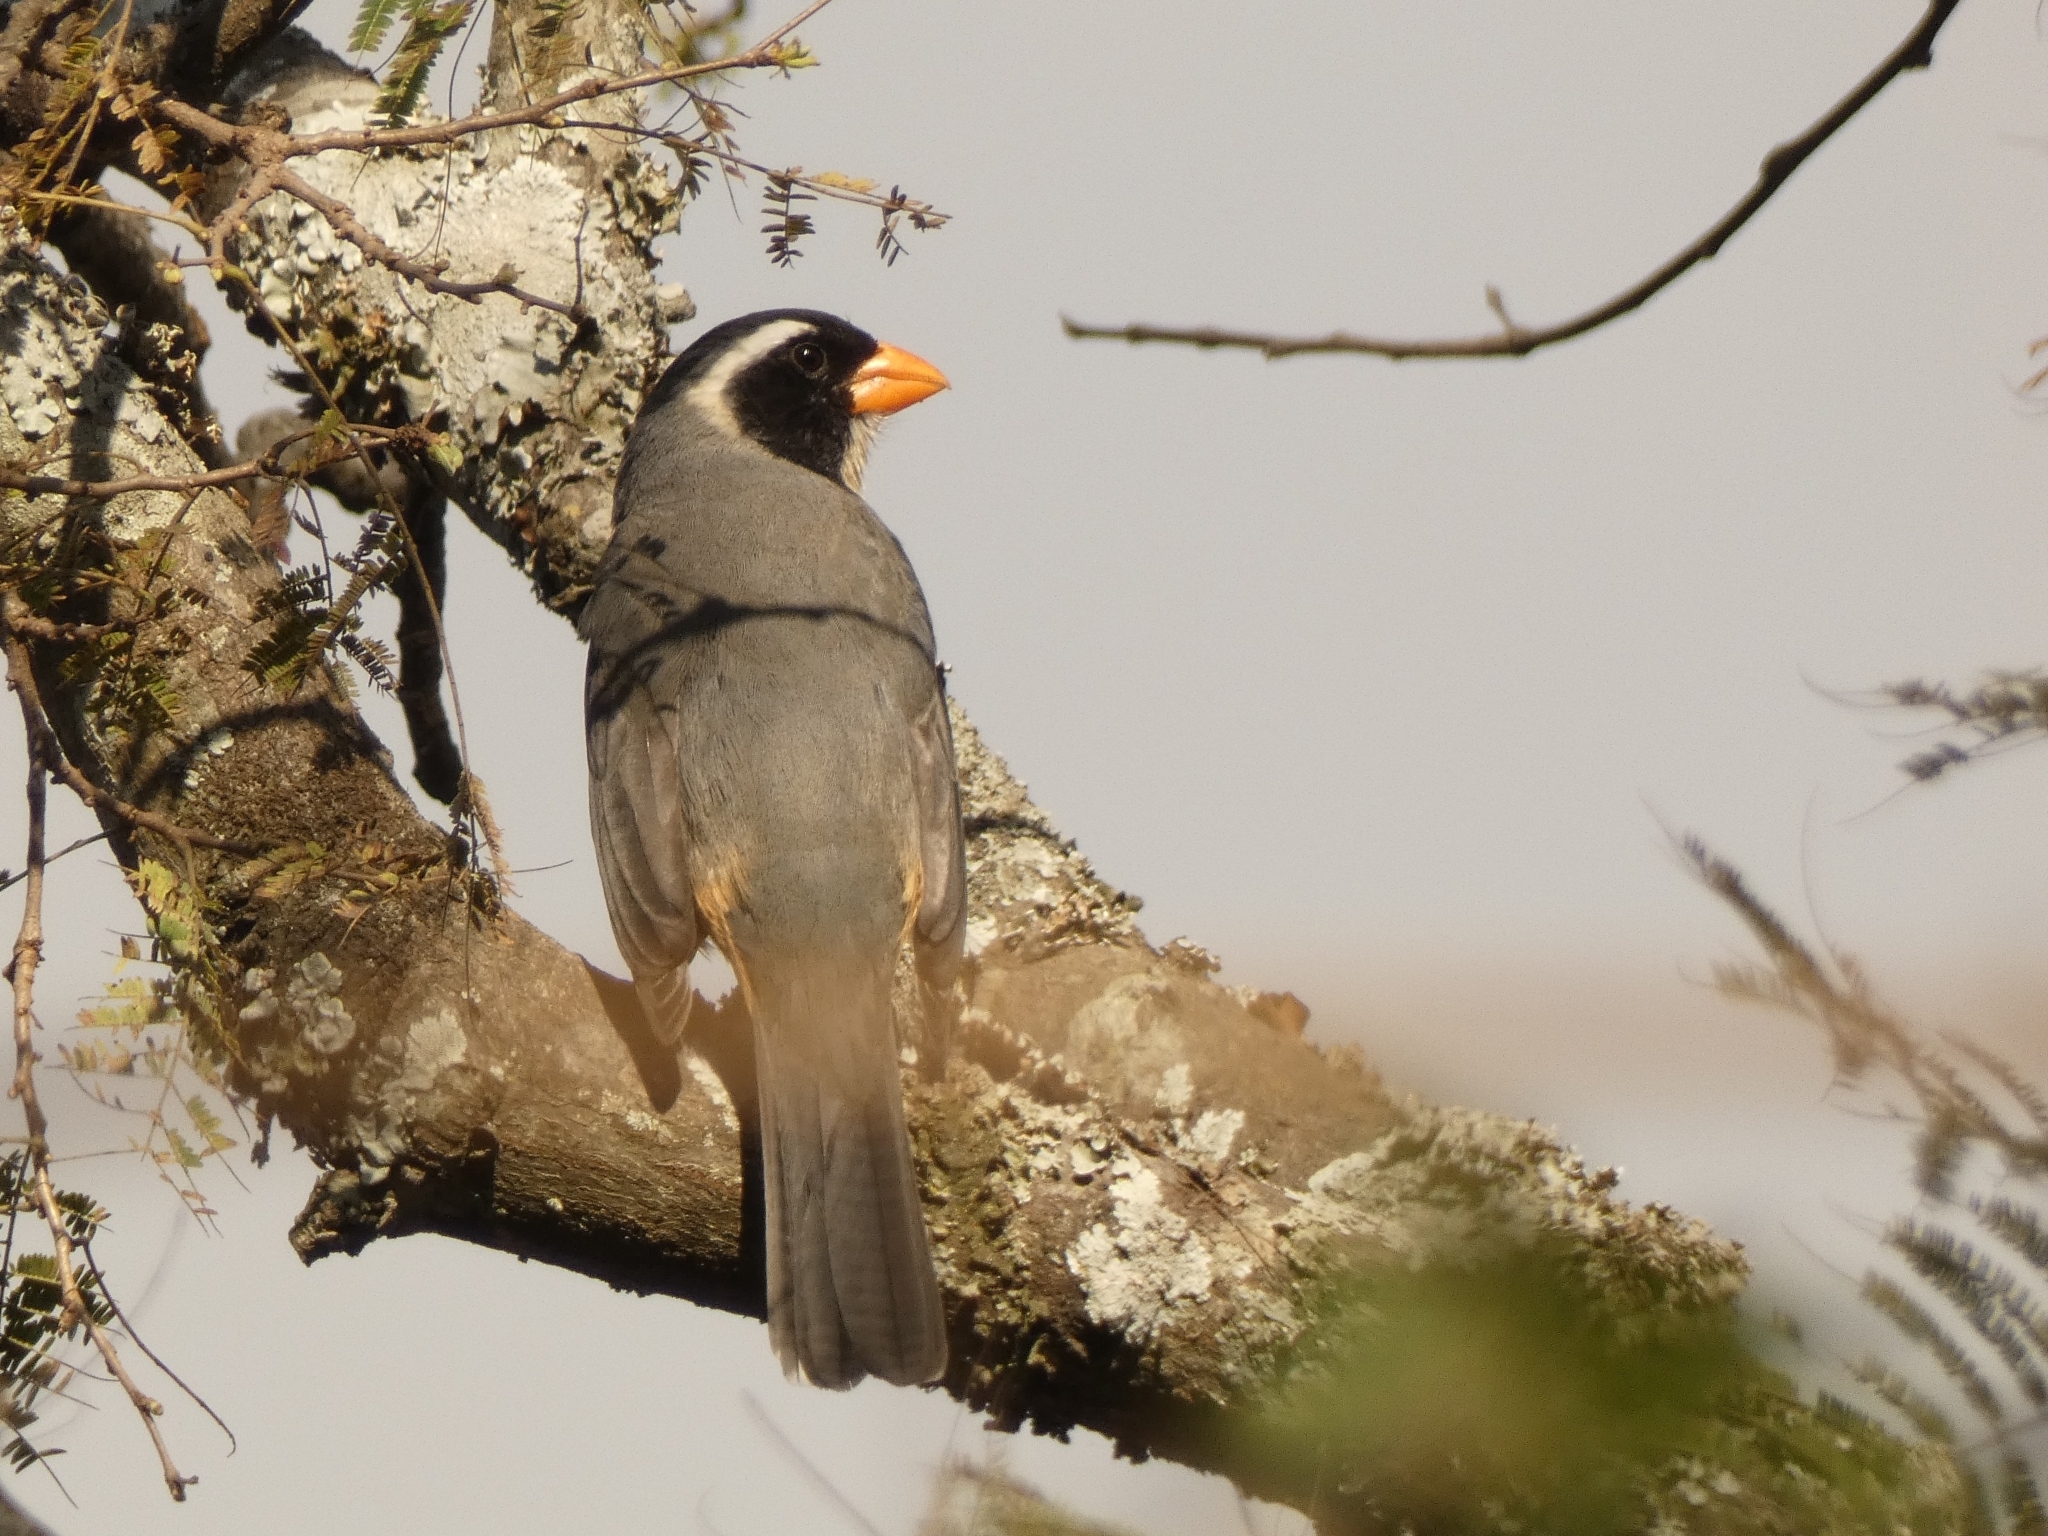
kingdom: Animalia
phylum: Chordata
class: Aves
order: Passeriformes
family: Thraupidae
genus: Saltator
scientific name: Saltator aurantiirostris
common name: Golden-billed saltator
